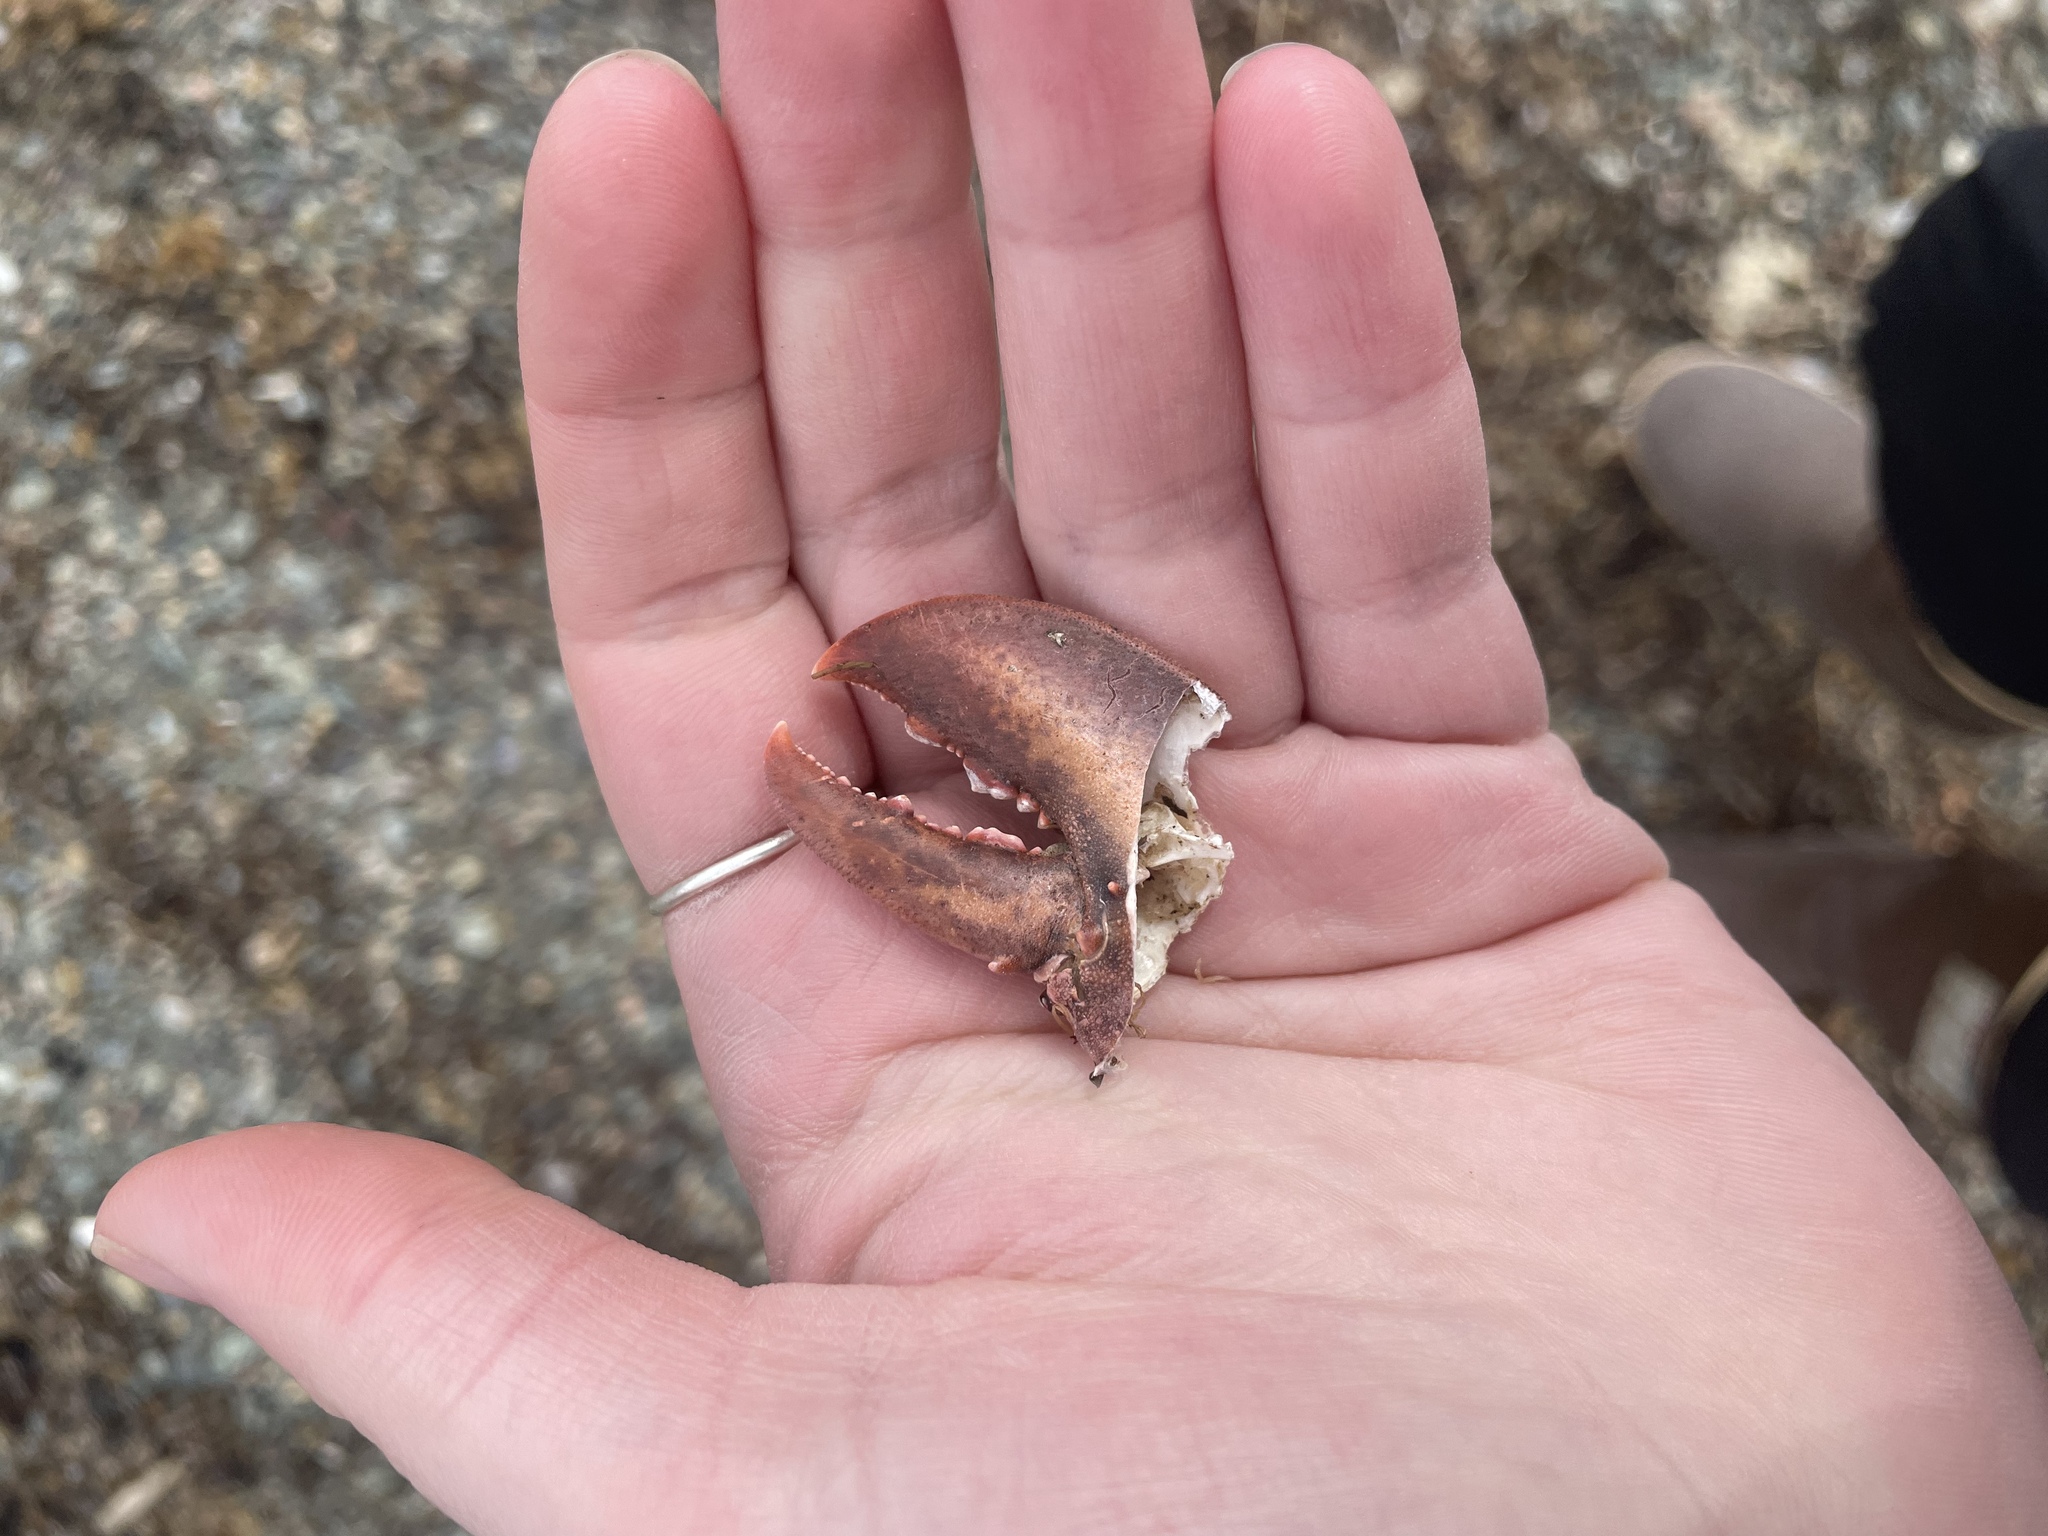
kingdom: Animalia
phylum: Arthropoda
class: Malacostraca
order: Decapoda
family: Nephropidae
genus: Homarus
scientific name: Homarus americanus
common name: American lobster
